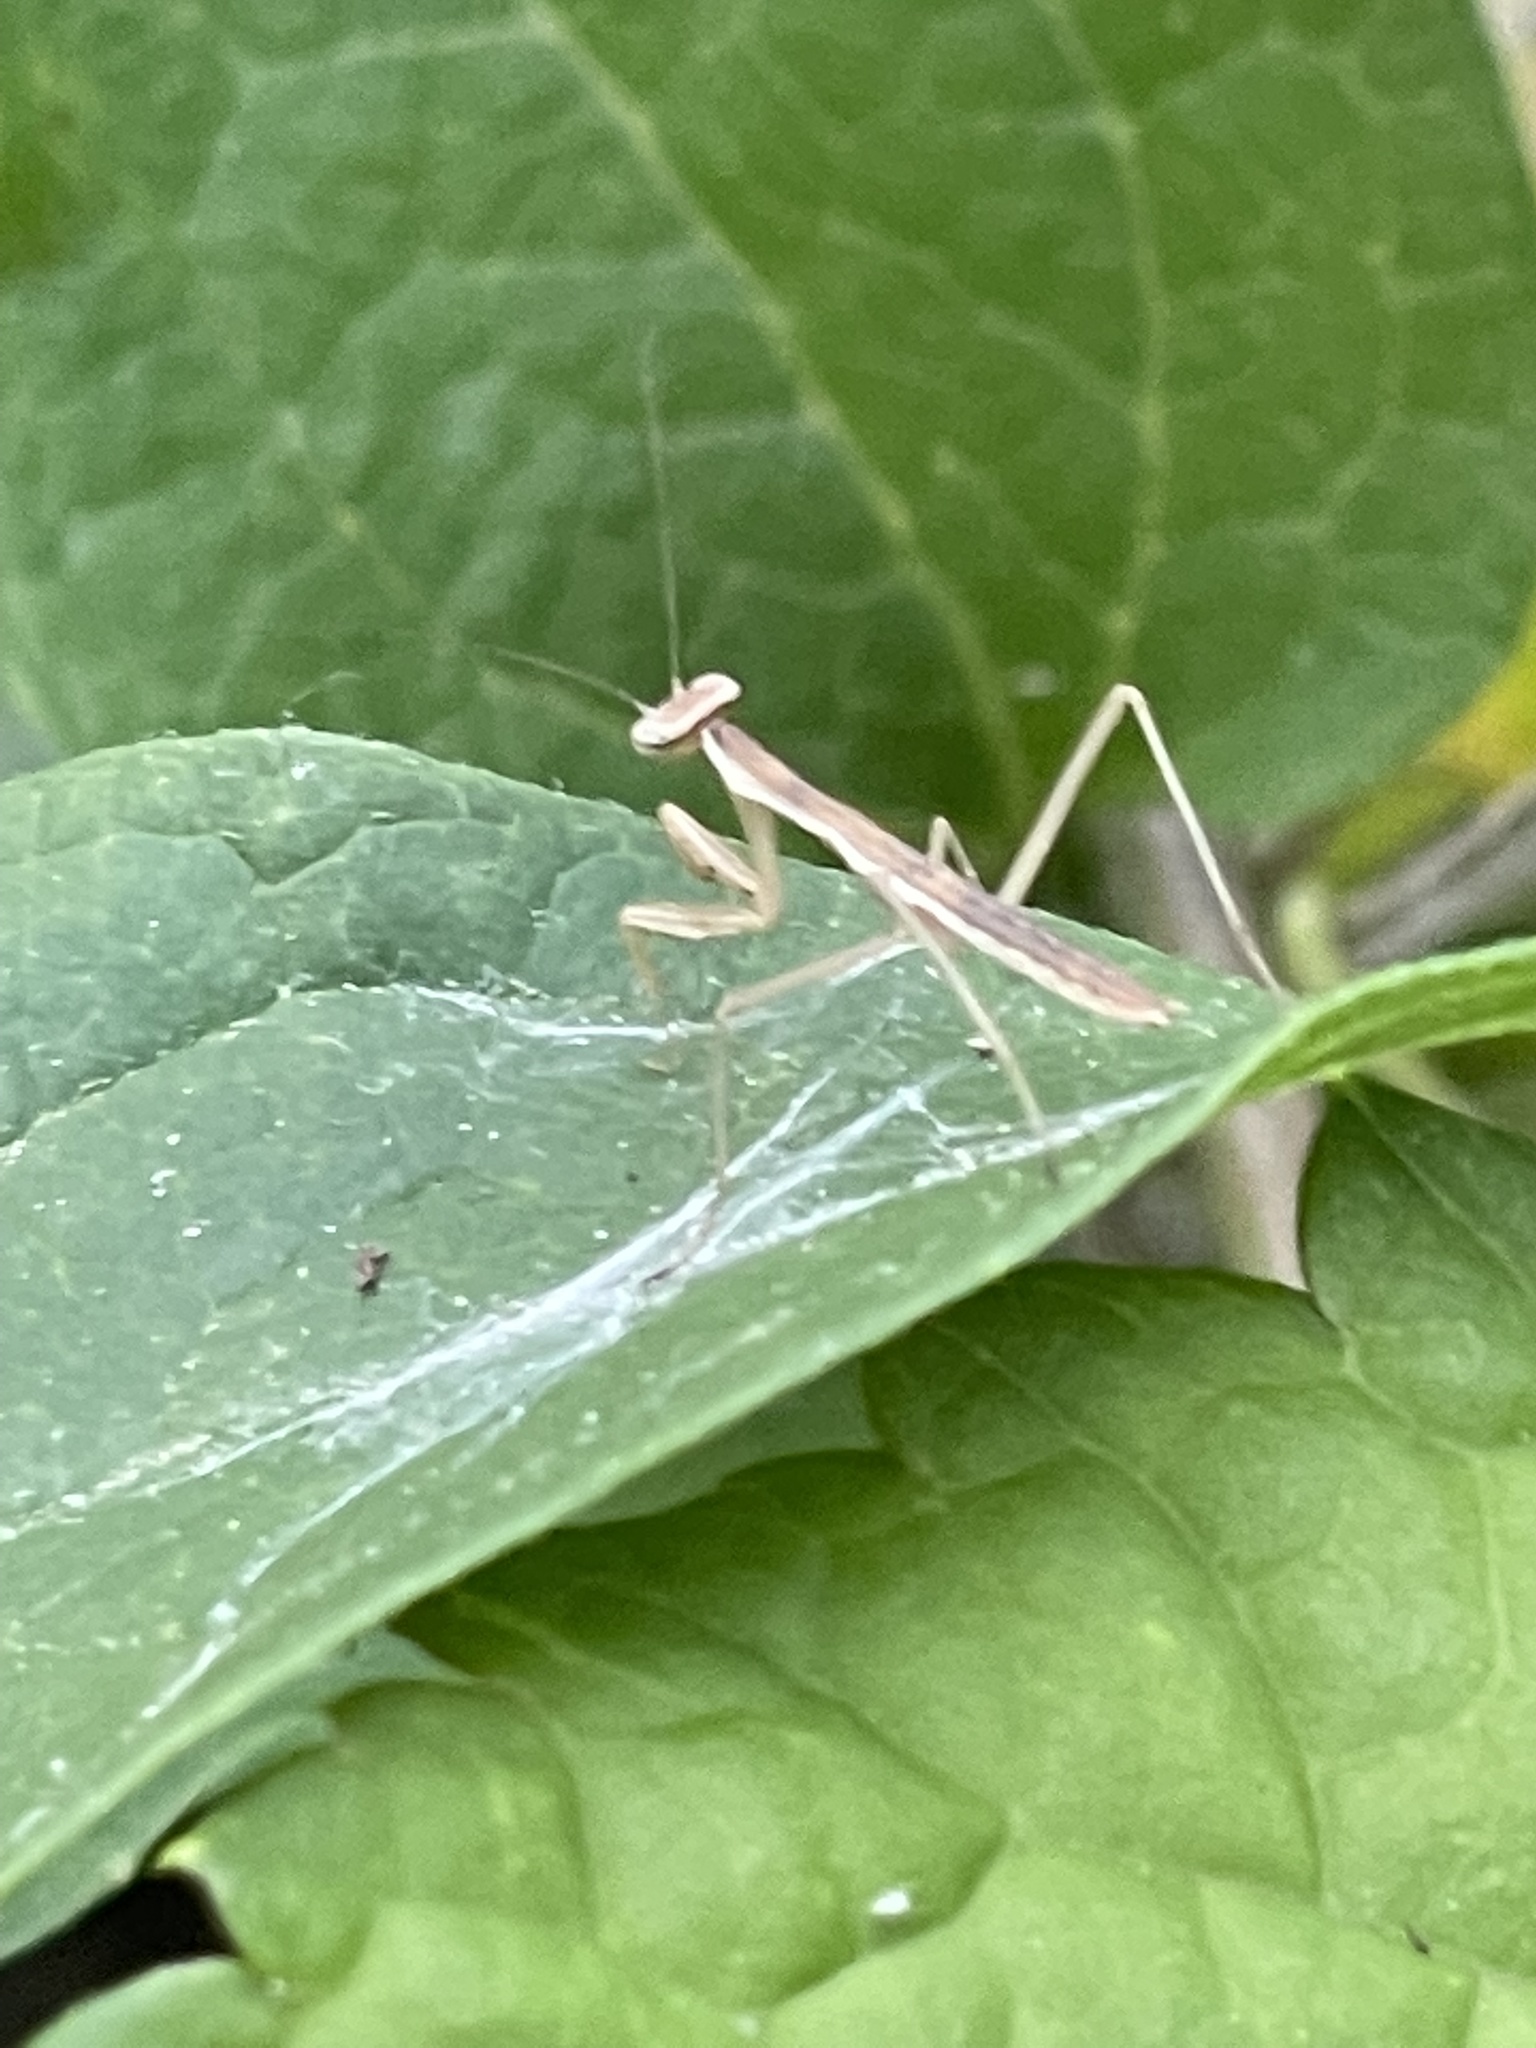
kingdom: Animalia
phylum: Arthropoda
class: Insecta
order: Mantodea
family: Mantidae
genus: Tenodera
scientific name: Tenodera sinensis
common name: Chinese mantis
